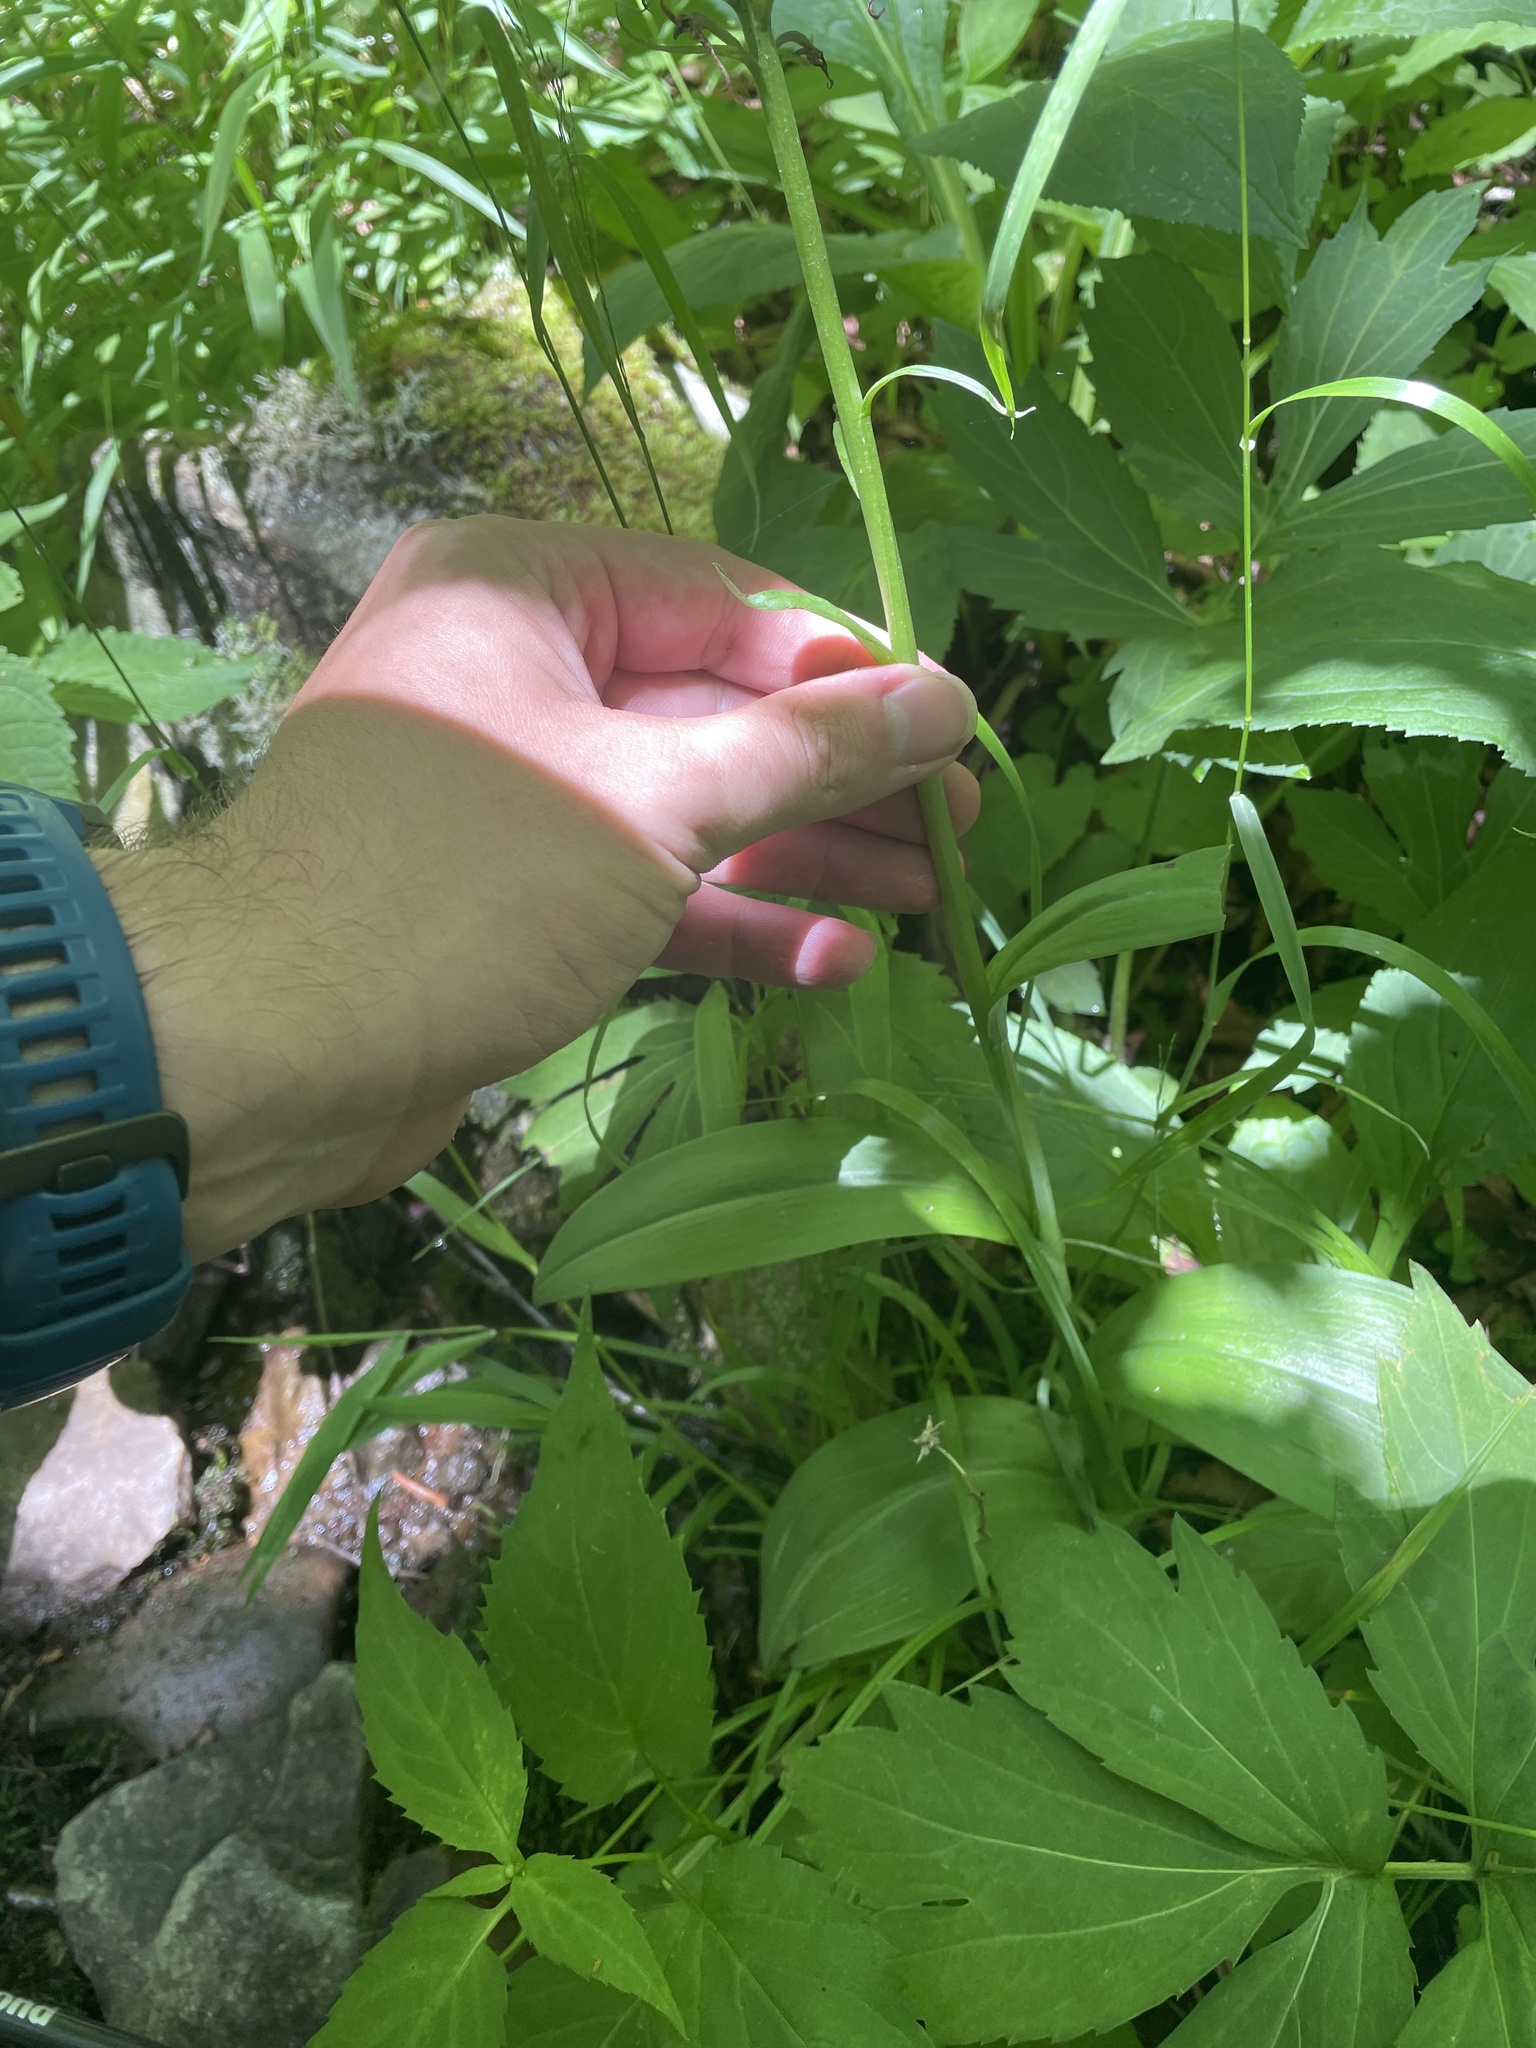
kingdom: Plantae
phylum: Tracheophyta
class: Liliopsida
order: Asparagales
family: Orchidaceae
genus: Platanthera
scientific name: Platanthera psycodes
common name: Lesser purple fringed orchid
